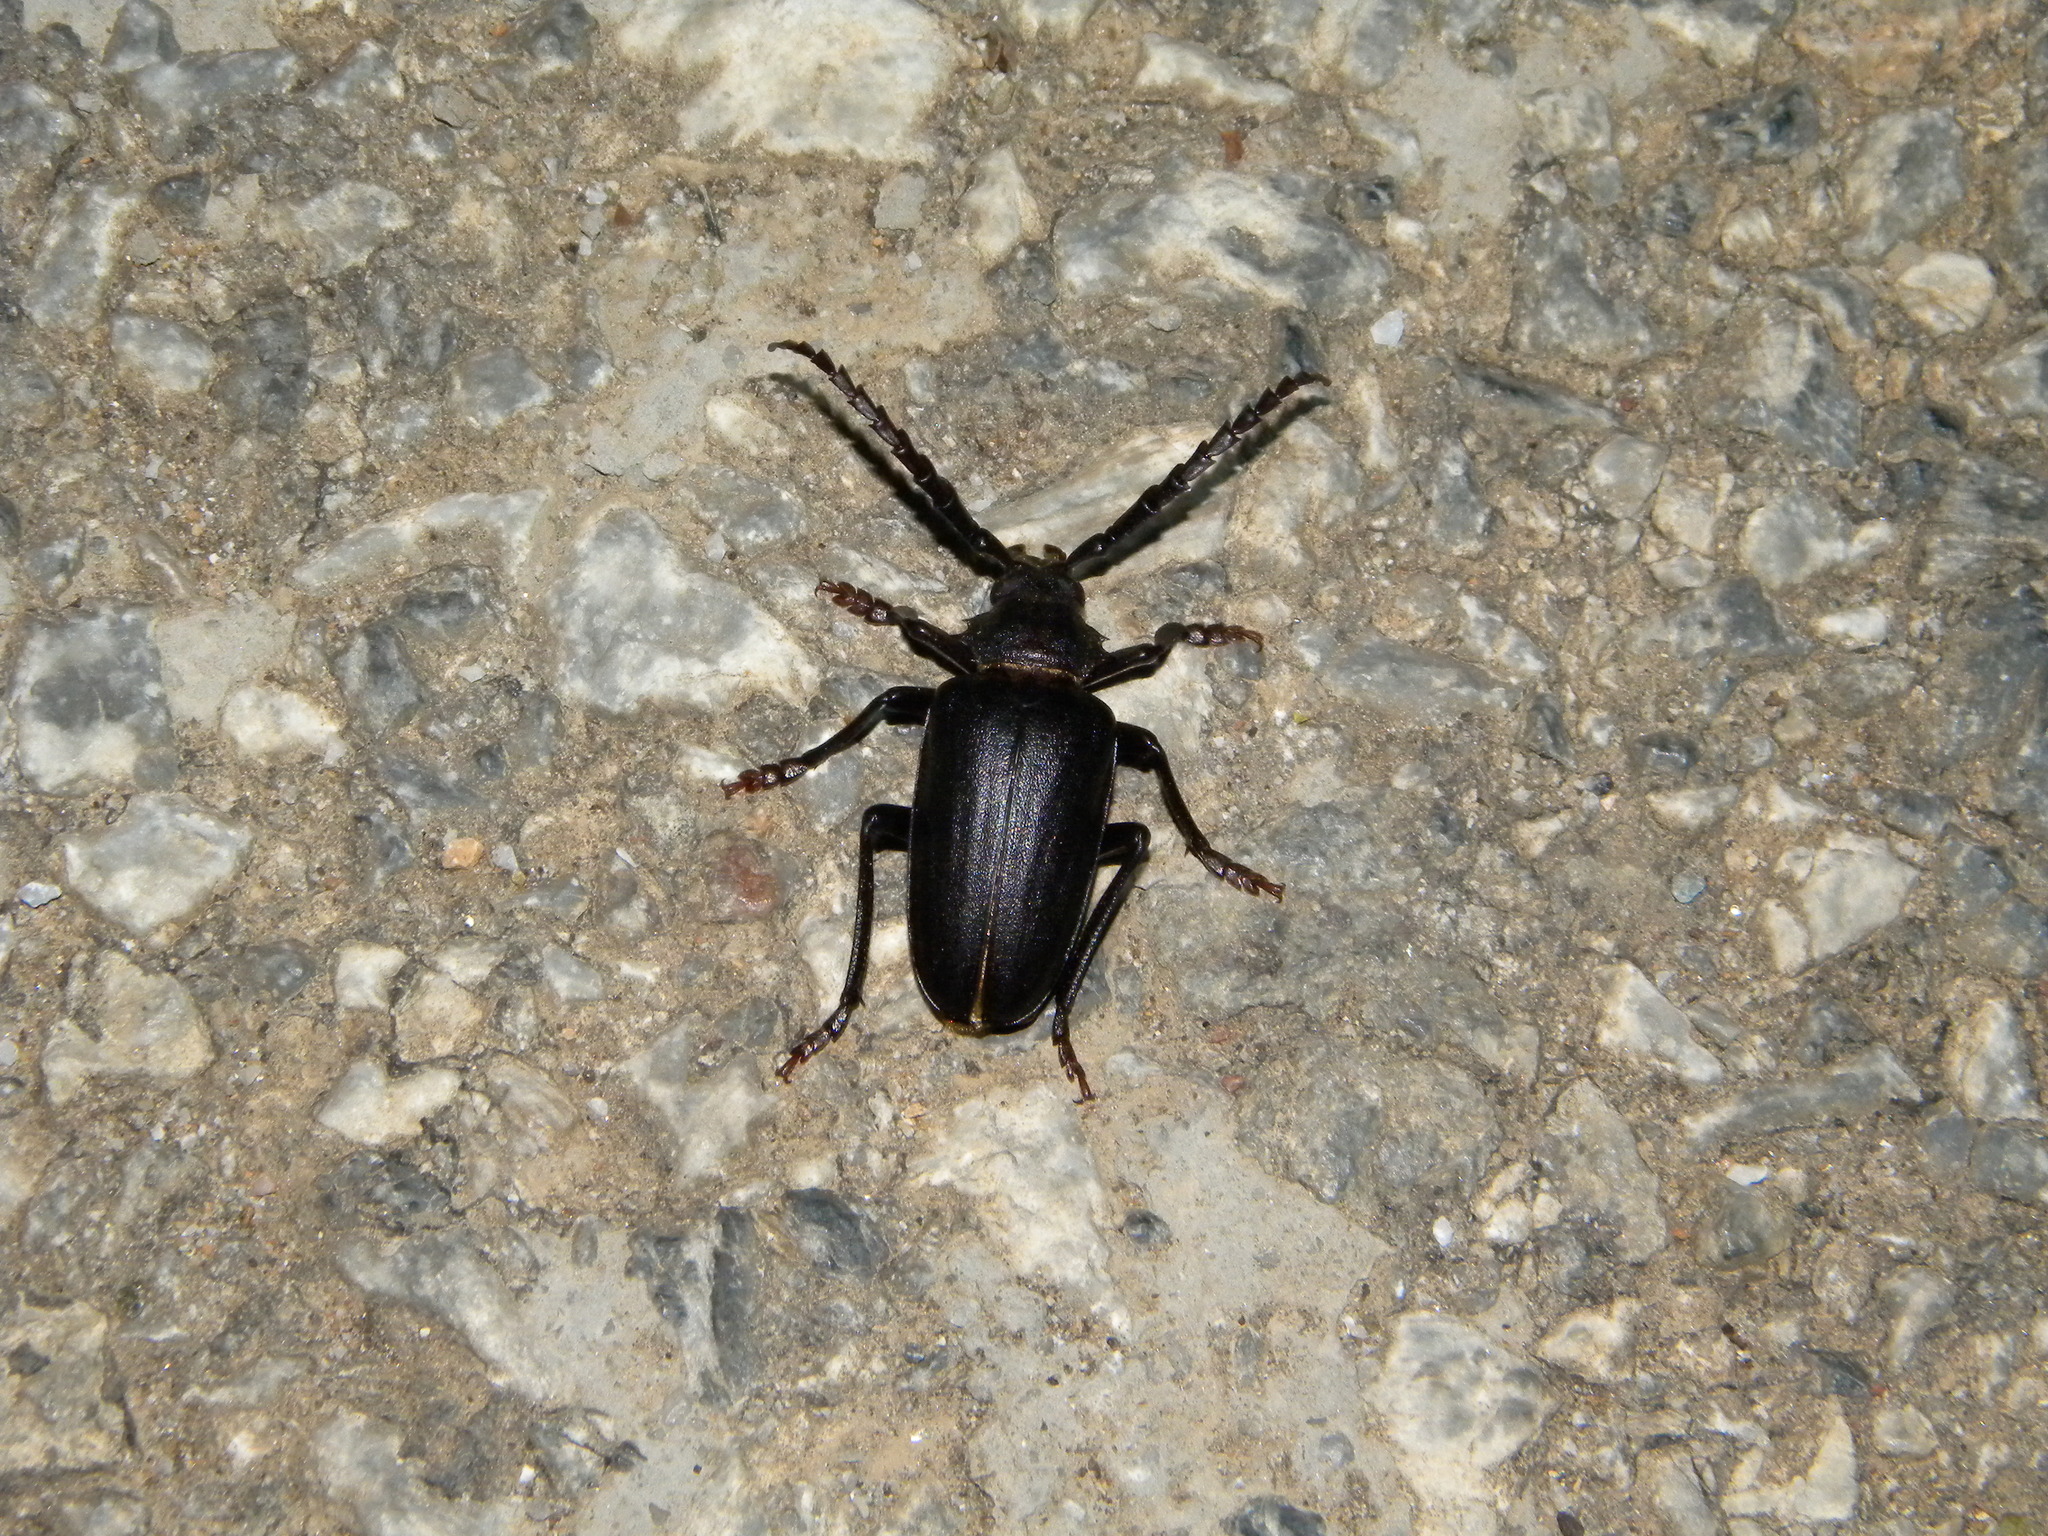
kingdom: Animalia
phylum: Arthropoda
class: Insecta
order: Coleoptera
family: Cerambycidae
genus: Mesoprionus
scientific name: Mesoprionus besikanus
